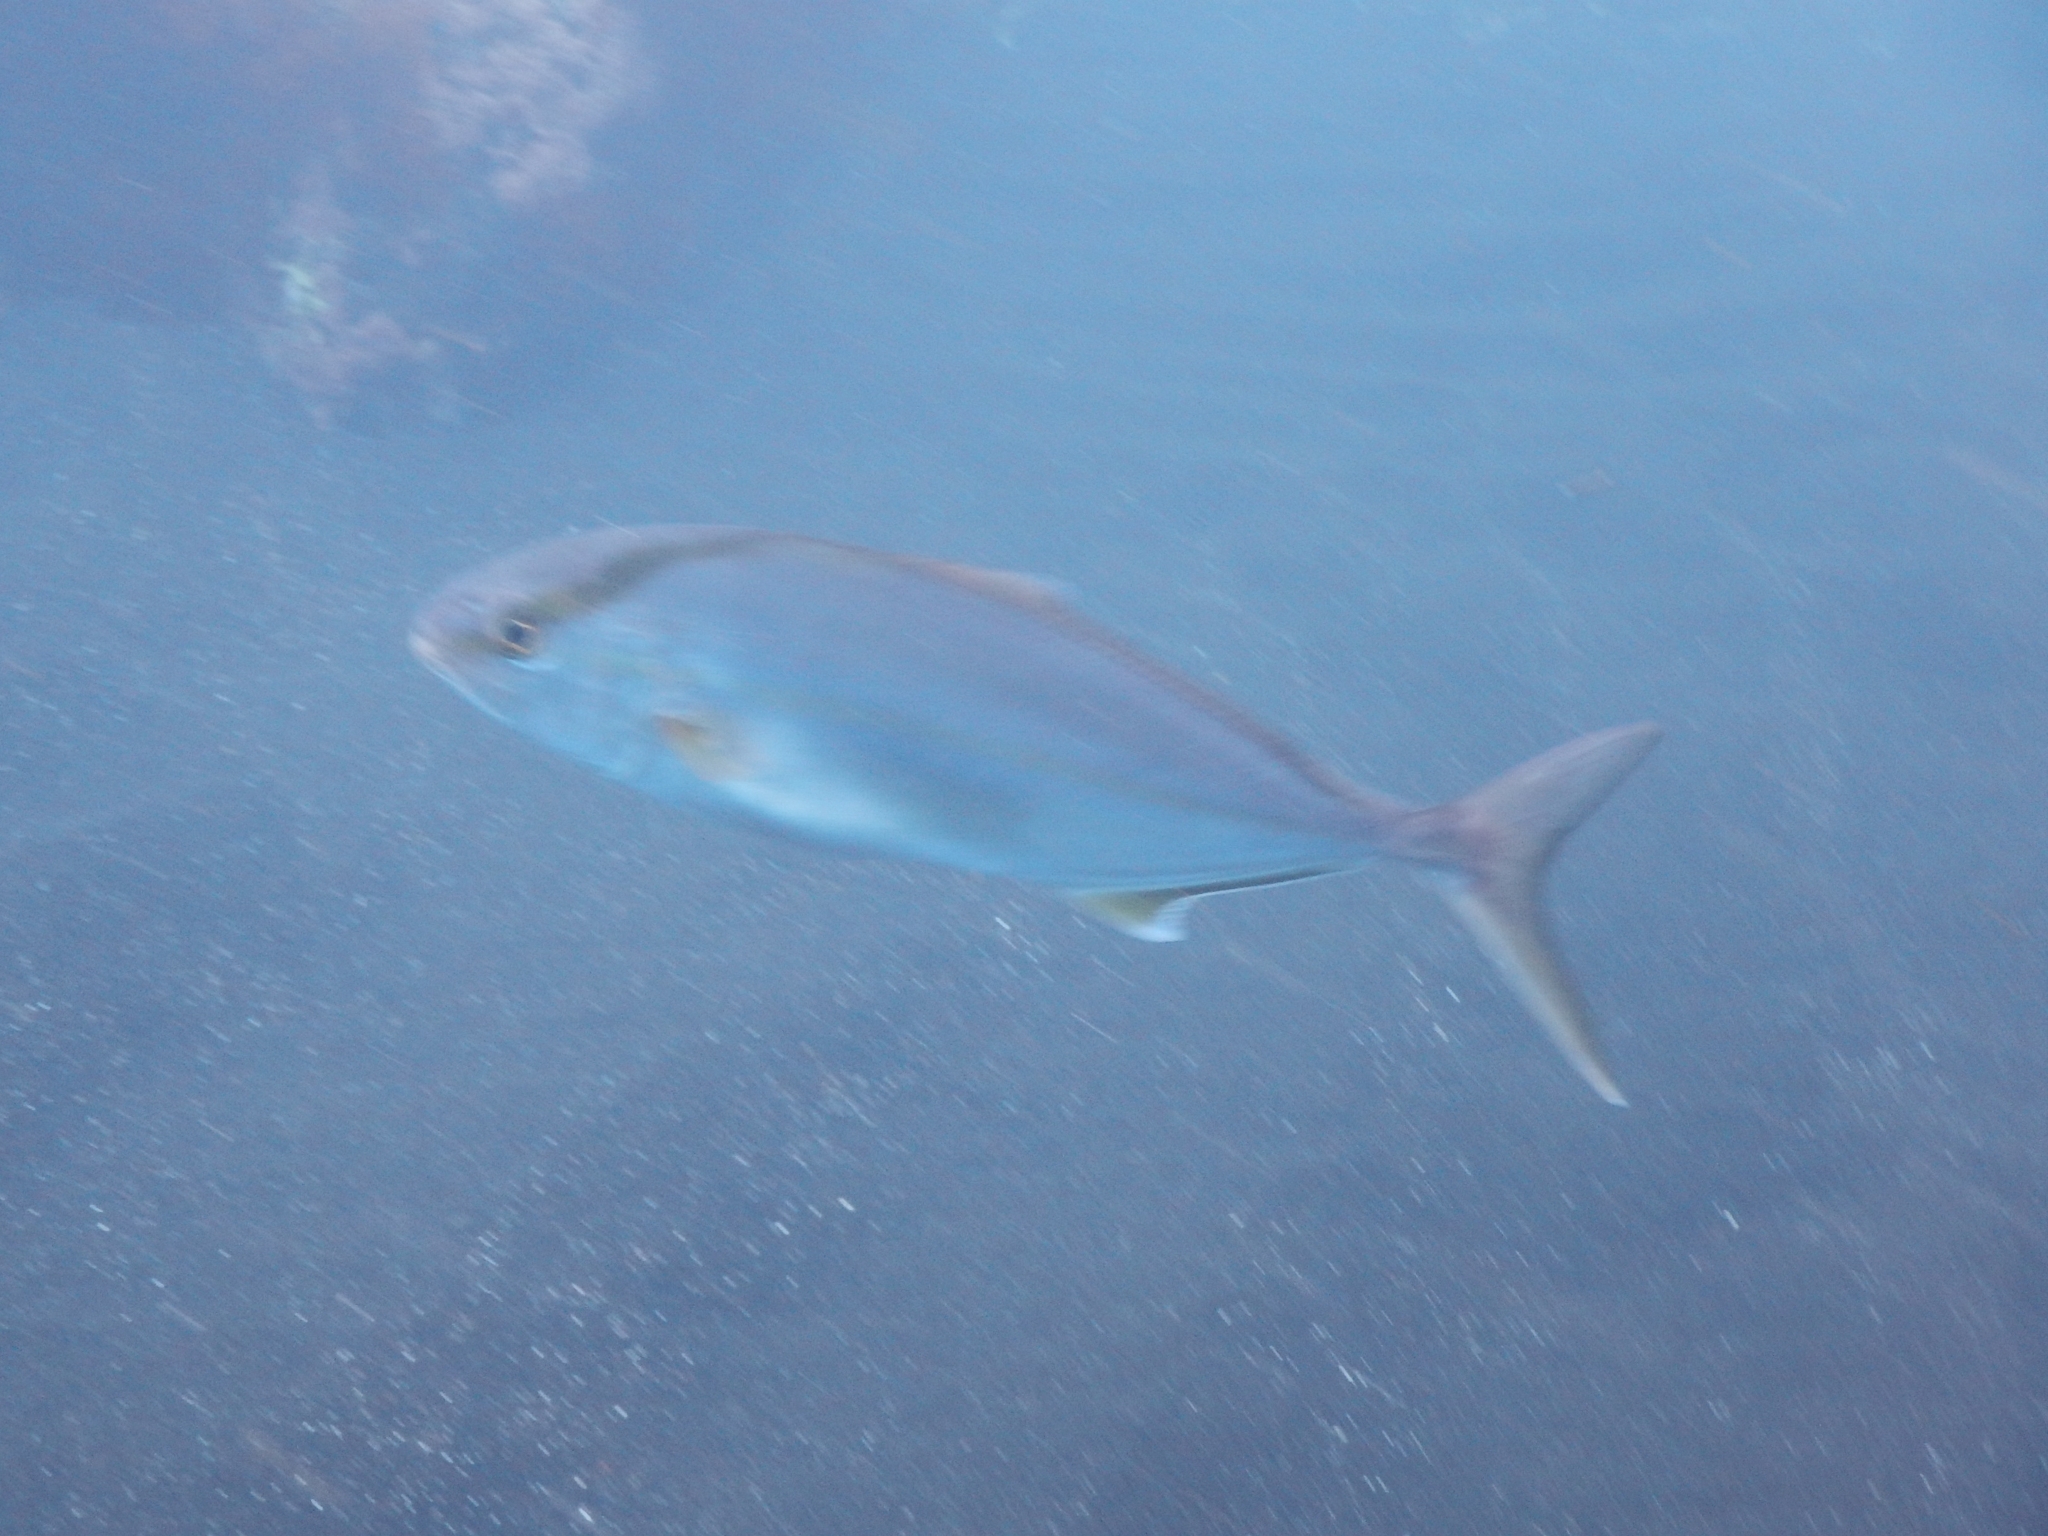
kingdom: Animalia
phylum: Chordata
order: Perciformes
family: Carangidae
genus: Seriola
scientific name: Seriola dumerili
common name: Greater amberjack
